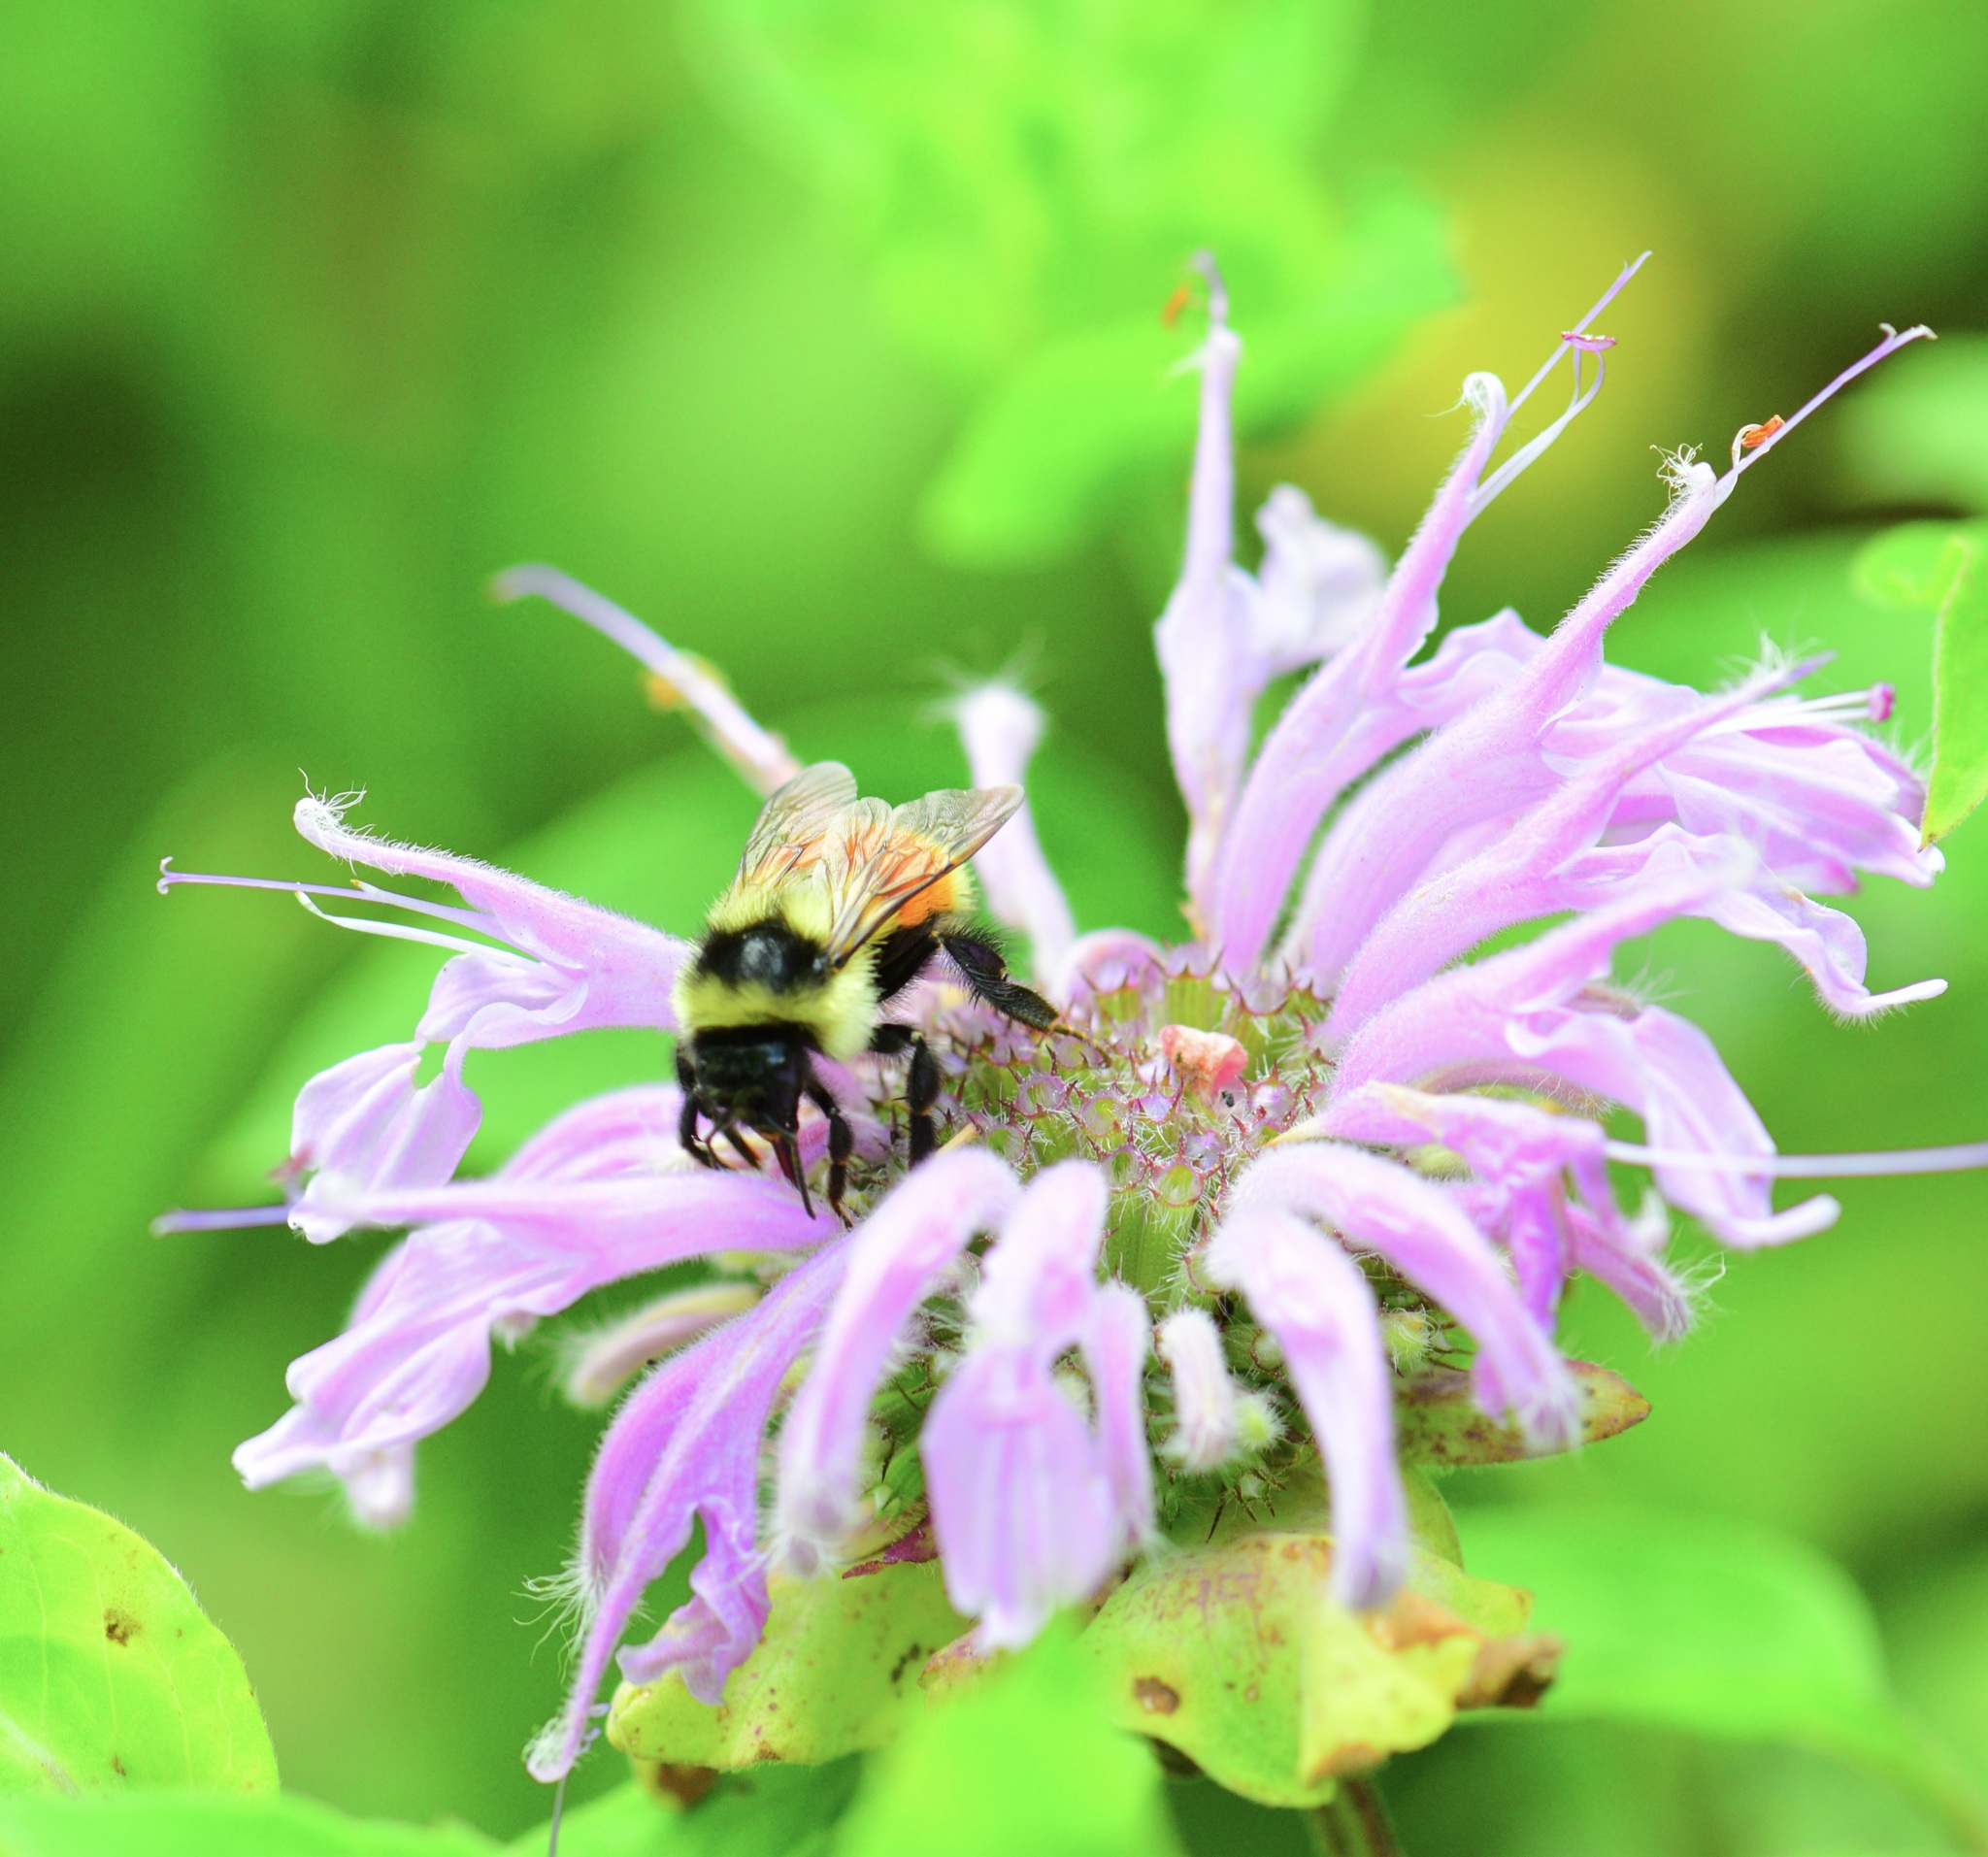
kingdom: Animalia
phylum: Arthropoda
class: Insecta
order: Hymenoptera
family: Apidae
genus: Bombus
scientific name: Bombus ternarius
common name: Tri-colored bumble bee
